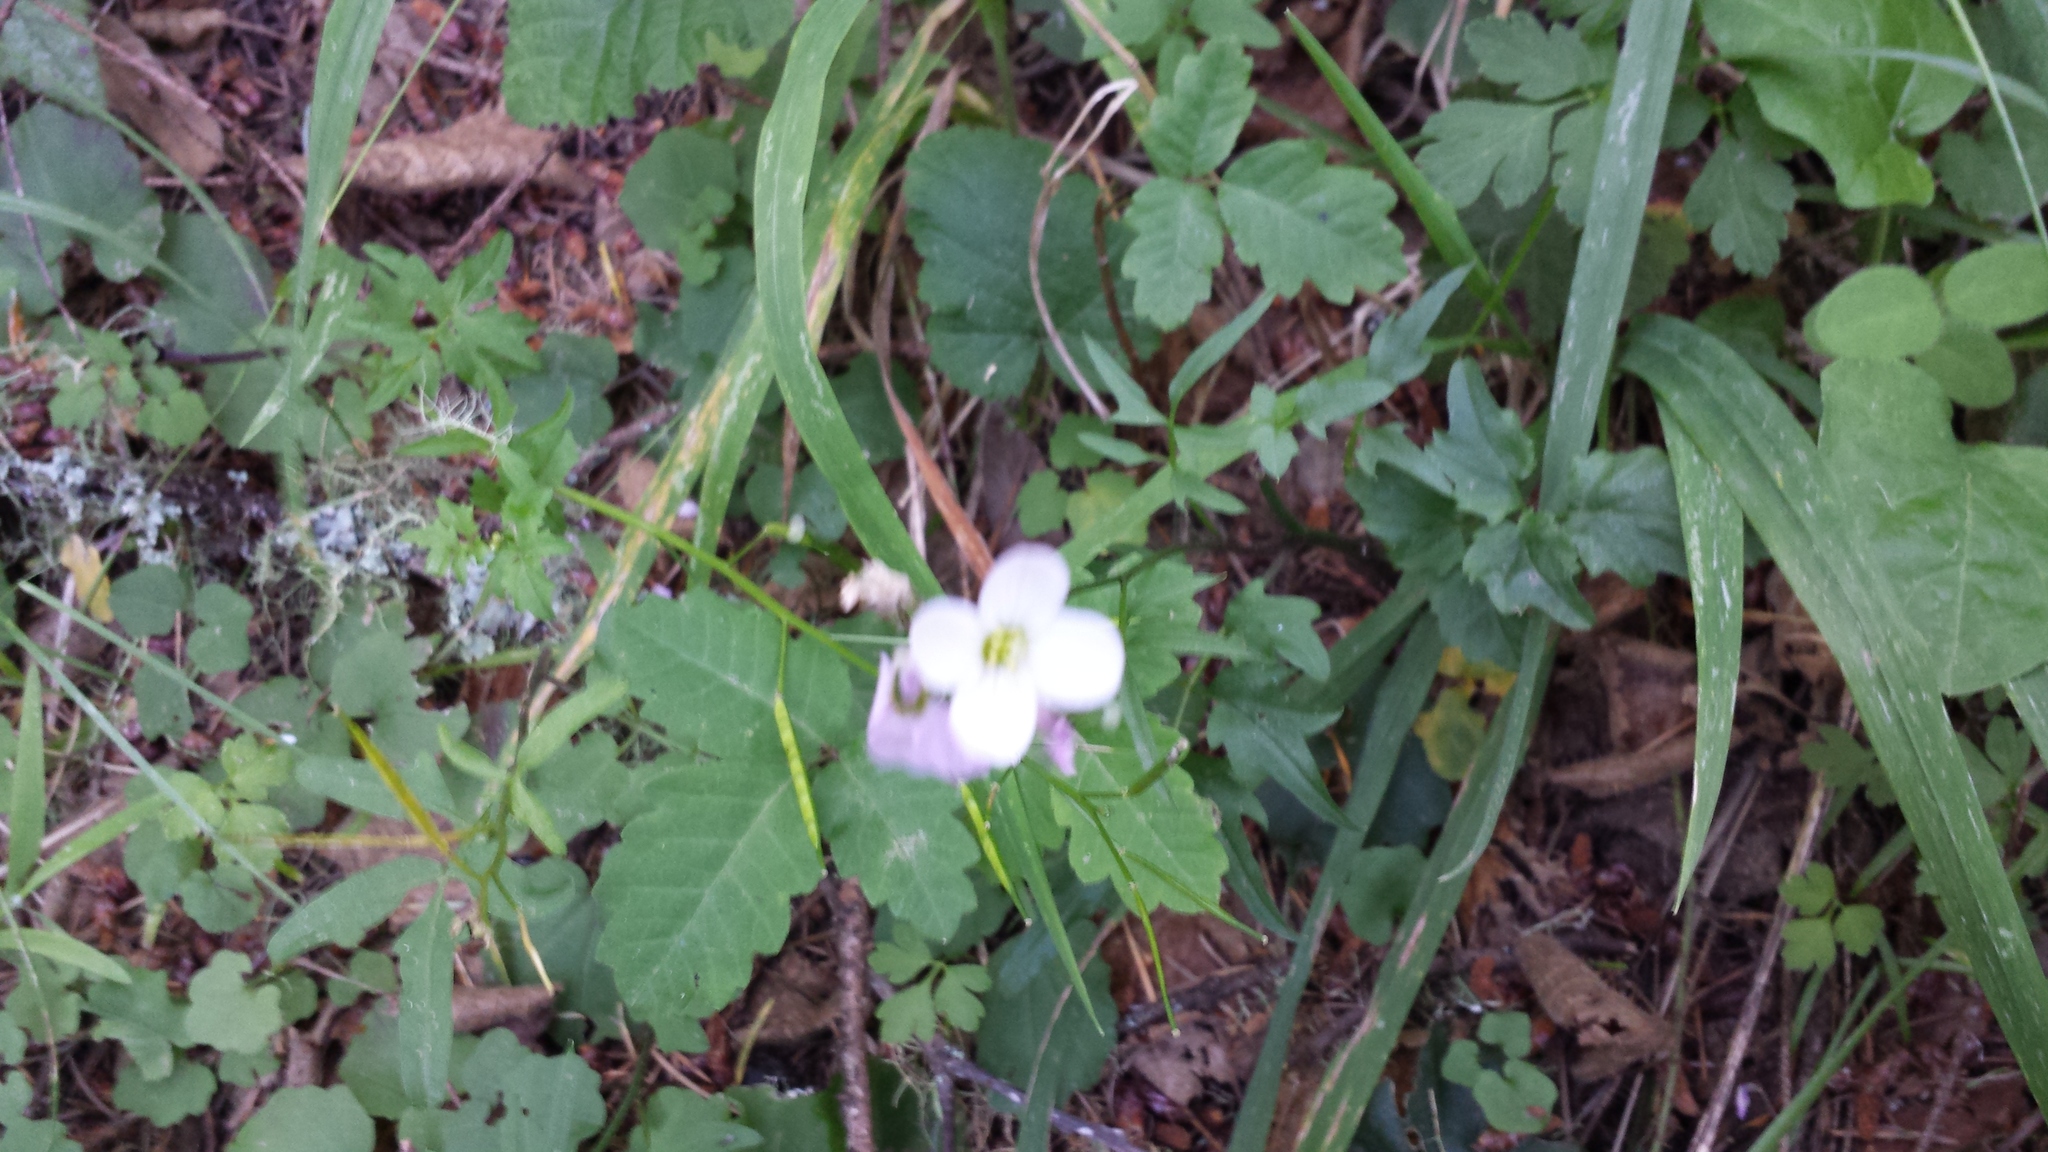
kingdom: Plantae
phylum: Tracheophyta
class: Magnoliopsida
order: Brassicales
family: Brassicaceae
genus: Cardamine
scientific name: Cardamine californica
